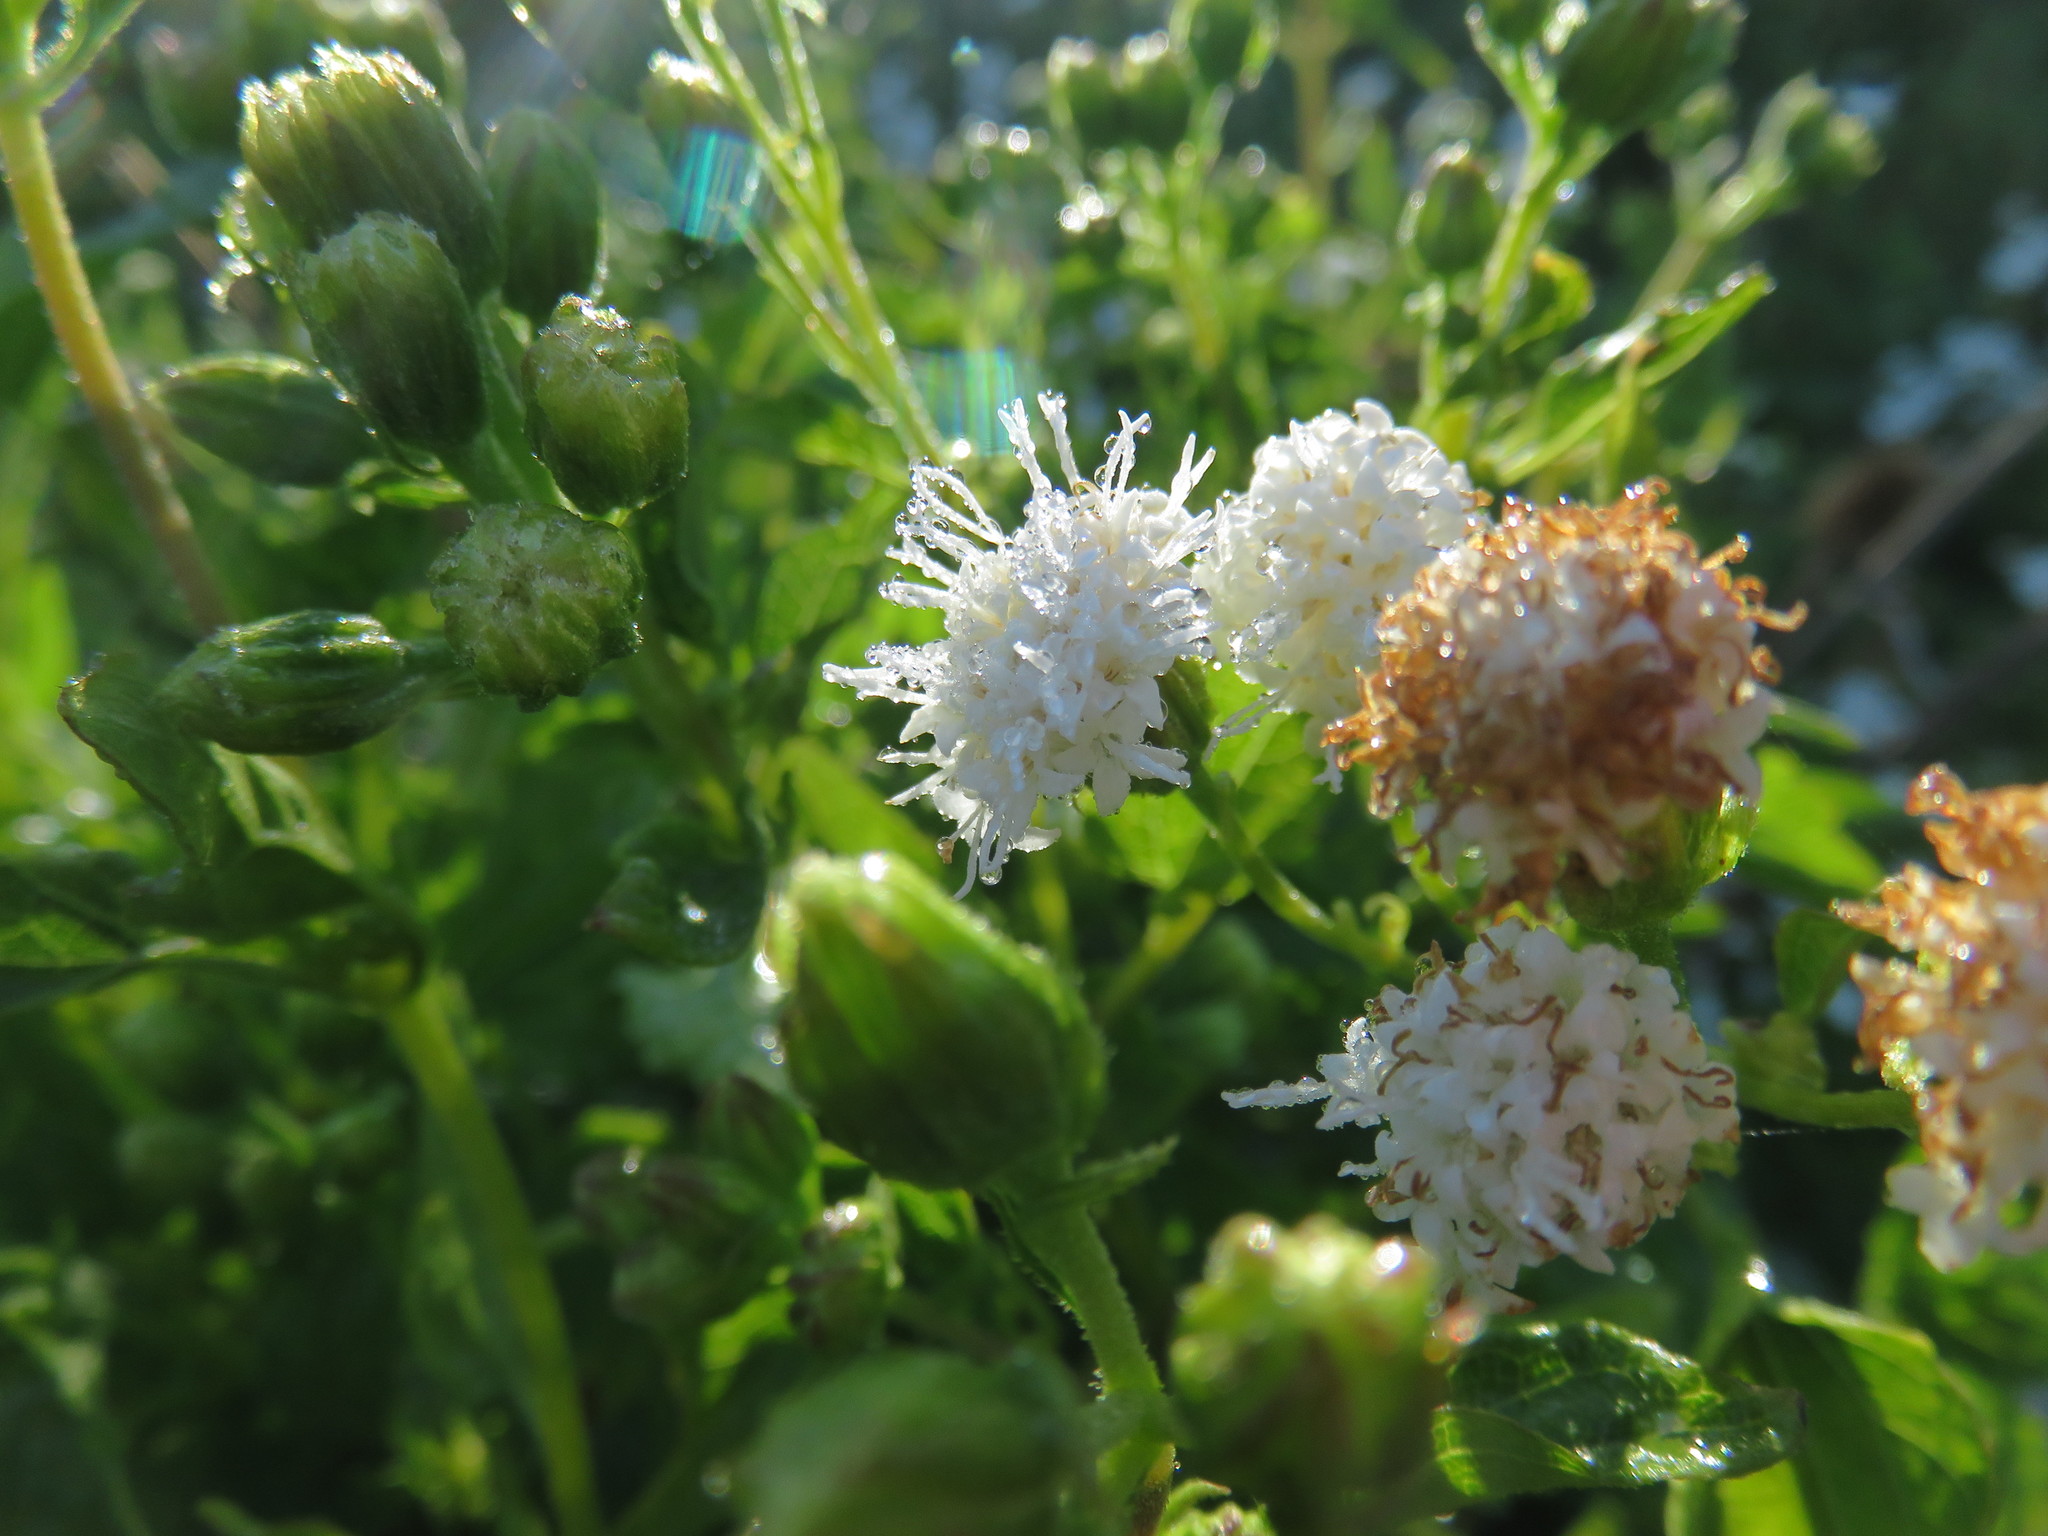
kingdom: Plantae
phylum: Tracheophyta
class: Magnoliopsida
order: Asterales
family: Asteraceae
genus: Ageratina
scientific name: Ageratina glechonophylla
